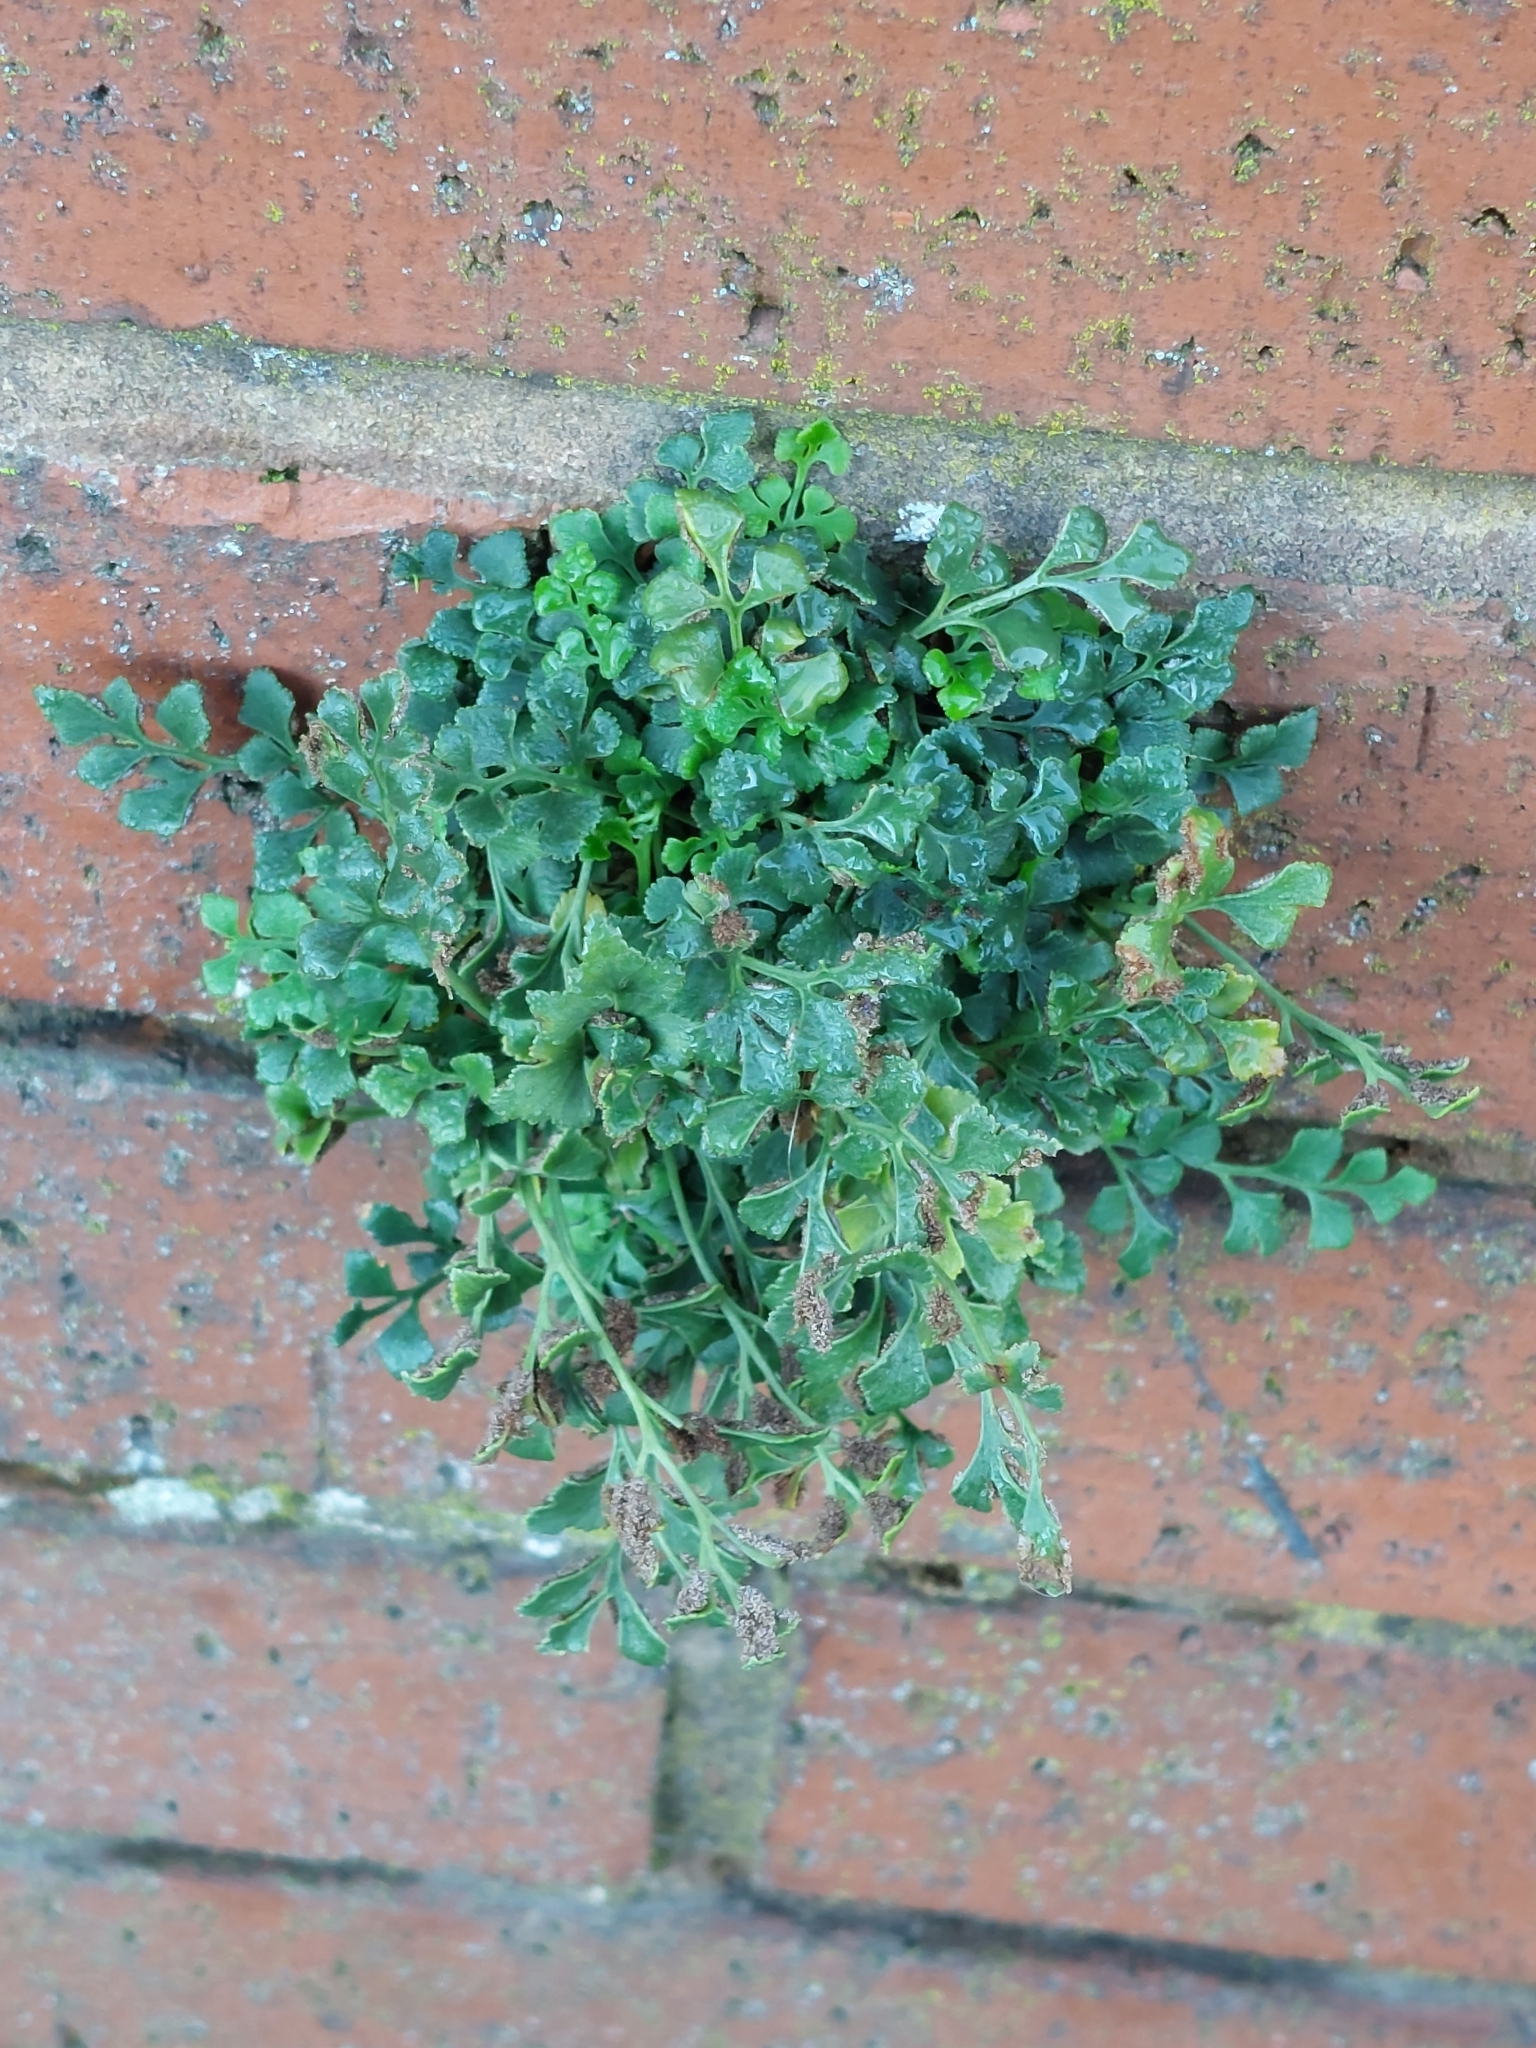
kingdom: Plantae
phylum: Tracheophyta
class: Polypodiopsida
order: Polypodiales
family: Aspleniaceae
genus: Asplenium
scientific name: Asplenium ruta-muraria
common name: Wall-rue
